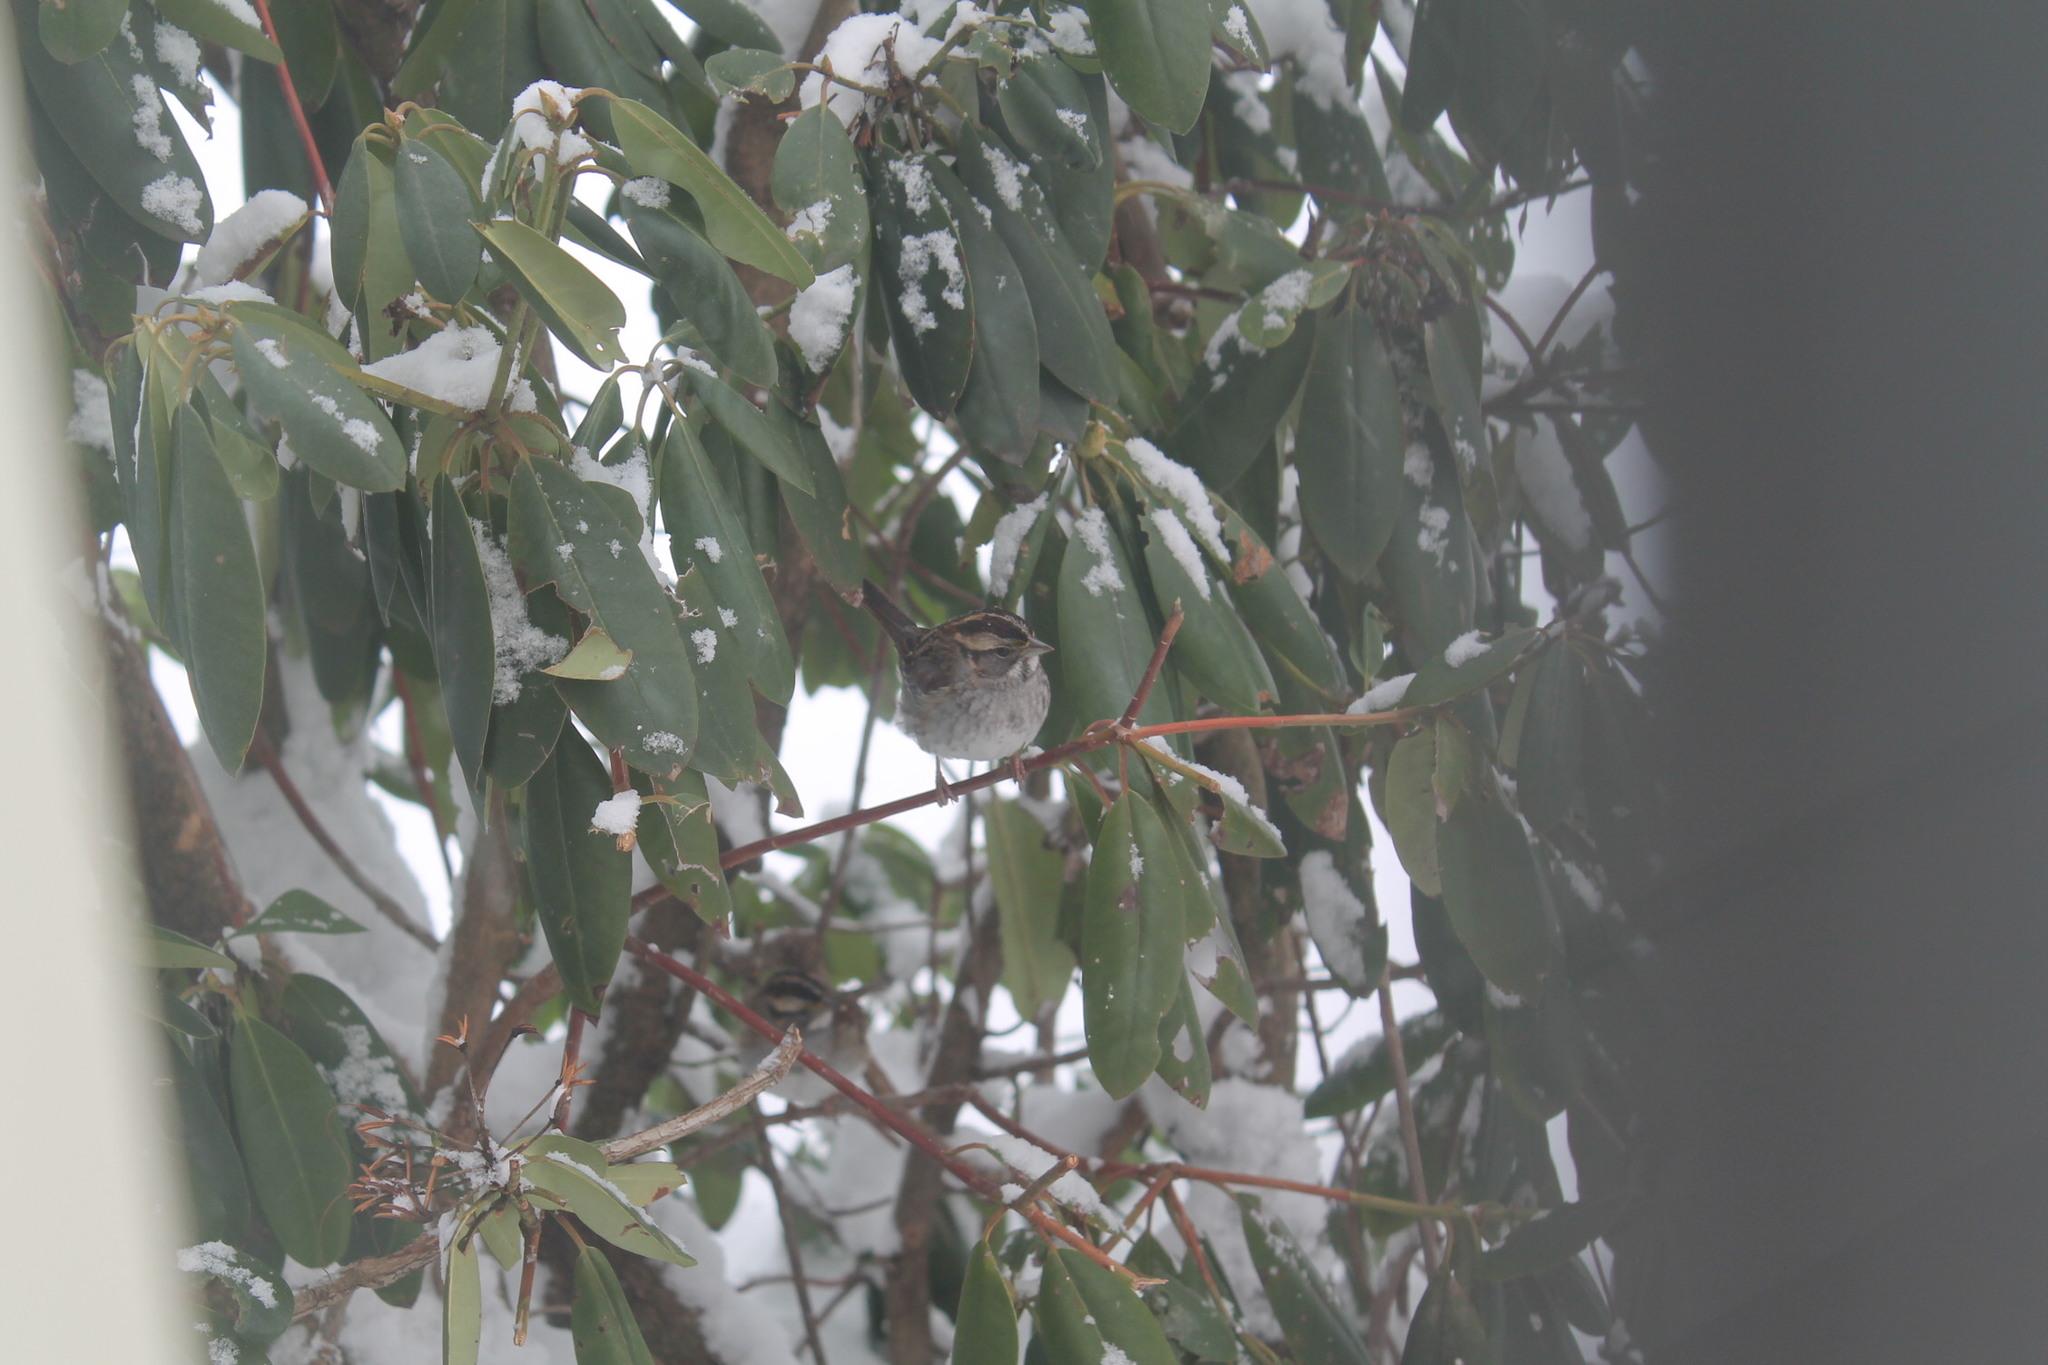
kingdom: Animalia
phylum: Chordata
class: Aves
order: Passeriformes
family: Passerellidae
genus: Zonotrichia
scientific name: Zonotrichia albicollis
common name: White-throated sparrow
